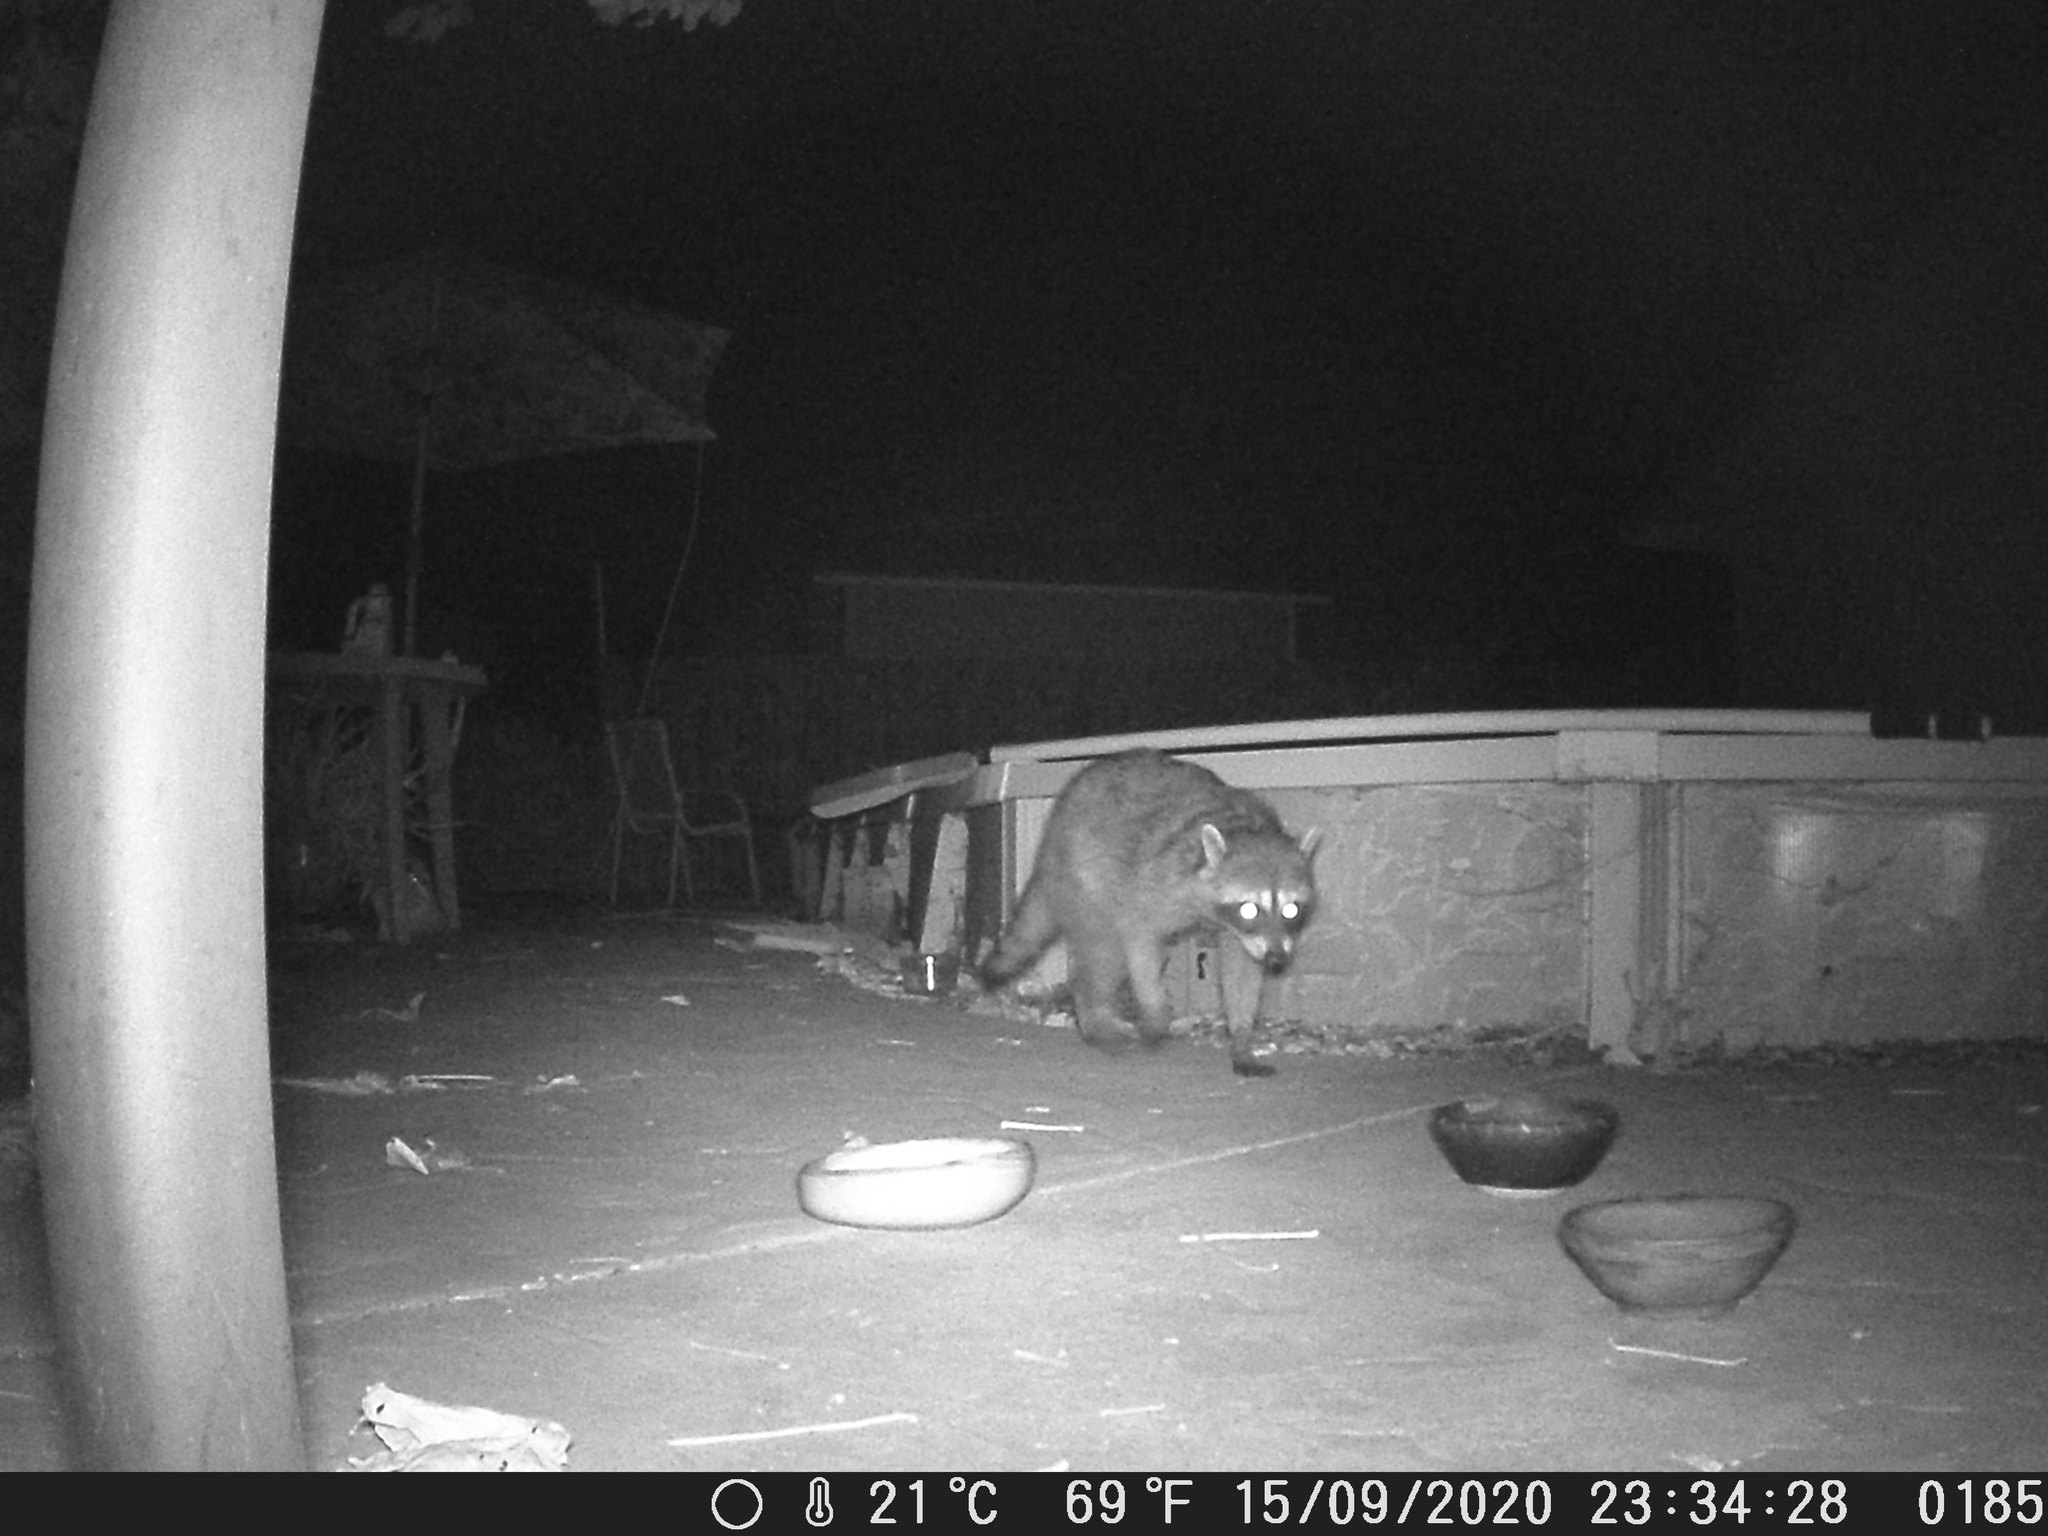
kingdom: Animalia
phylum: Chordata
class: Mammalia
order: Carnivora
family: Procyonidae
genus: Procyon
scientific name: Procyon lotor
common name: Raccoon
